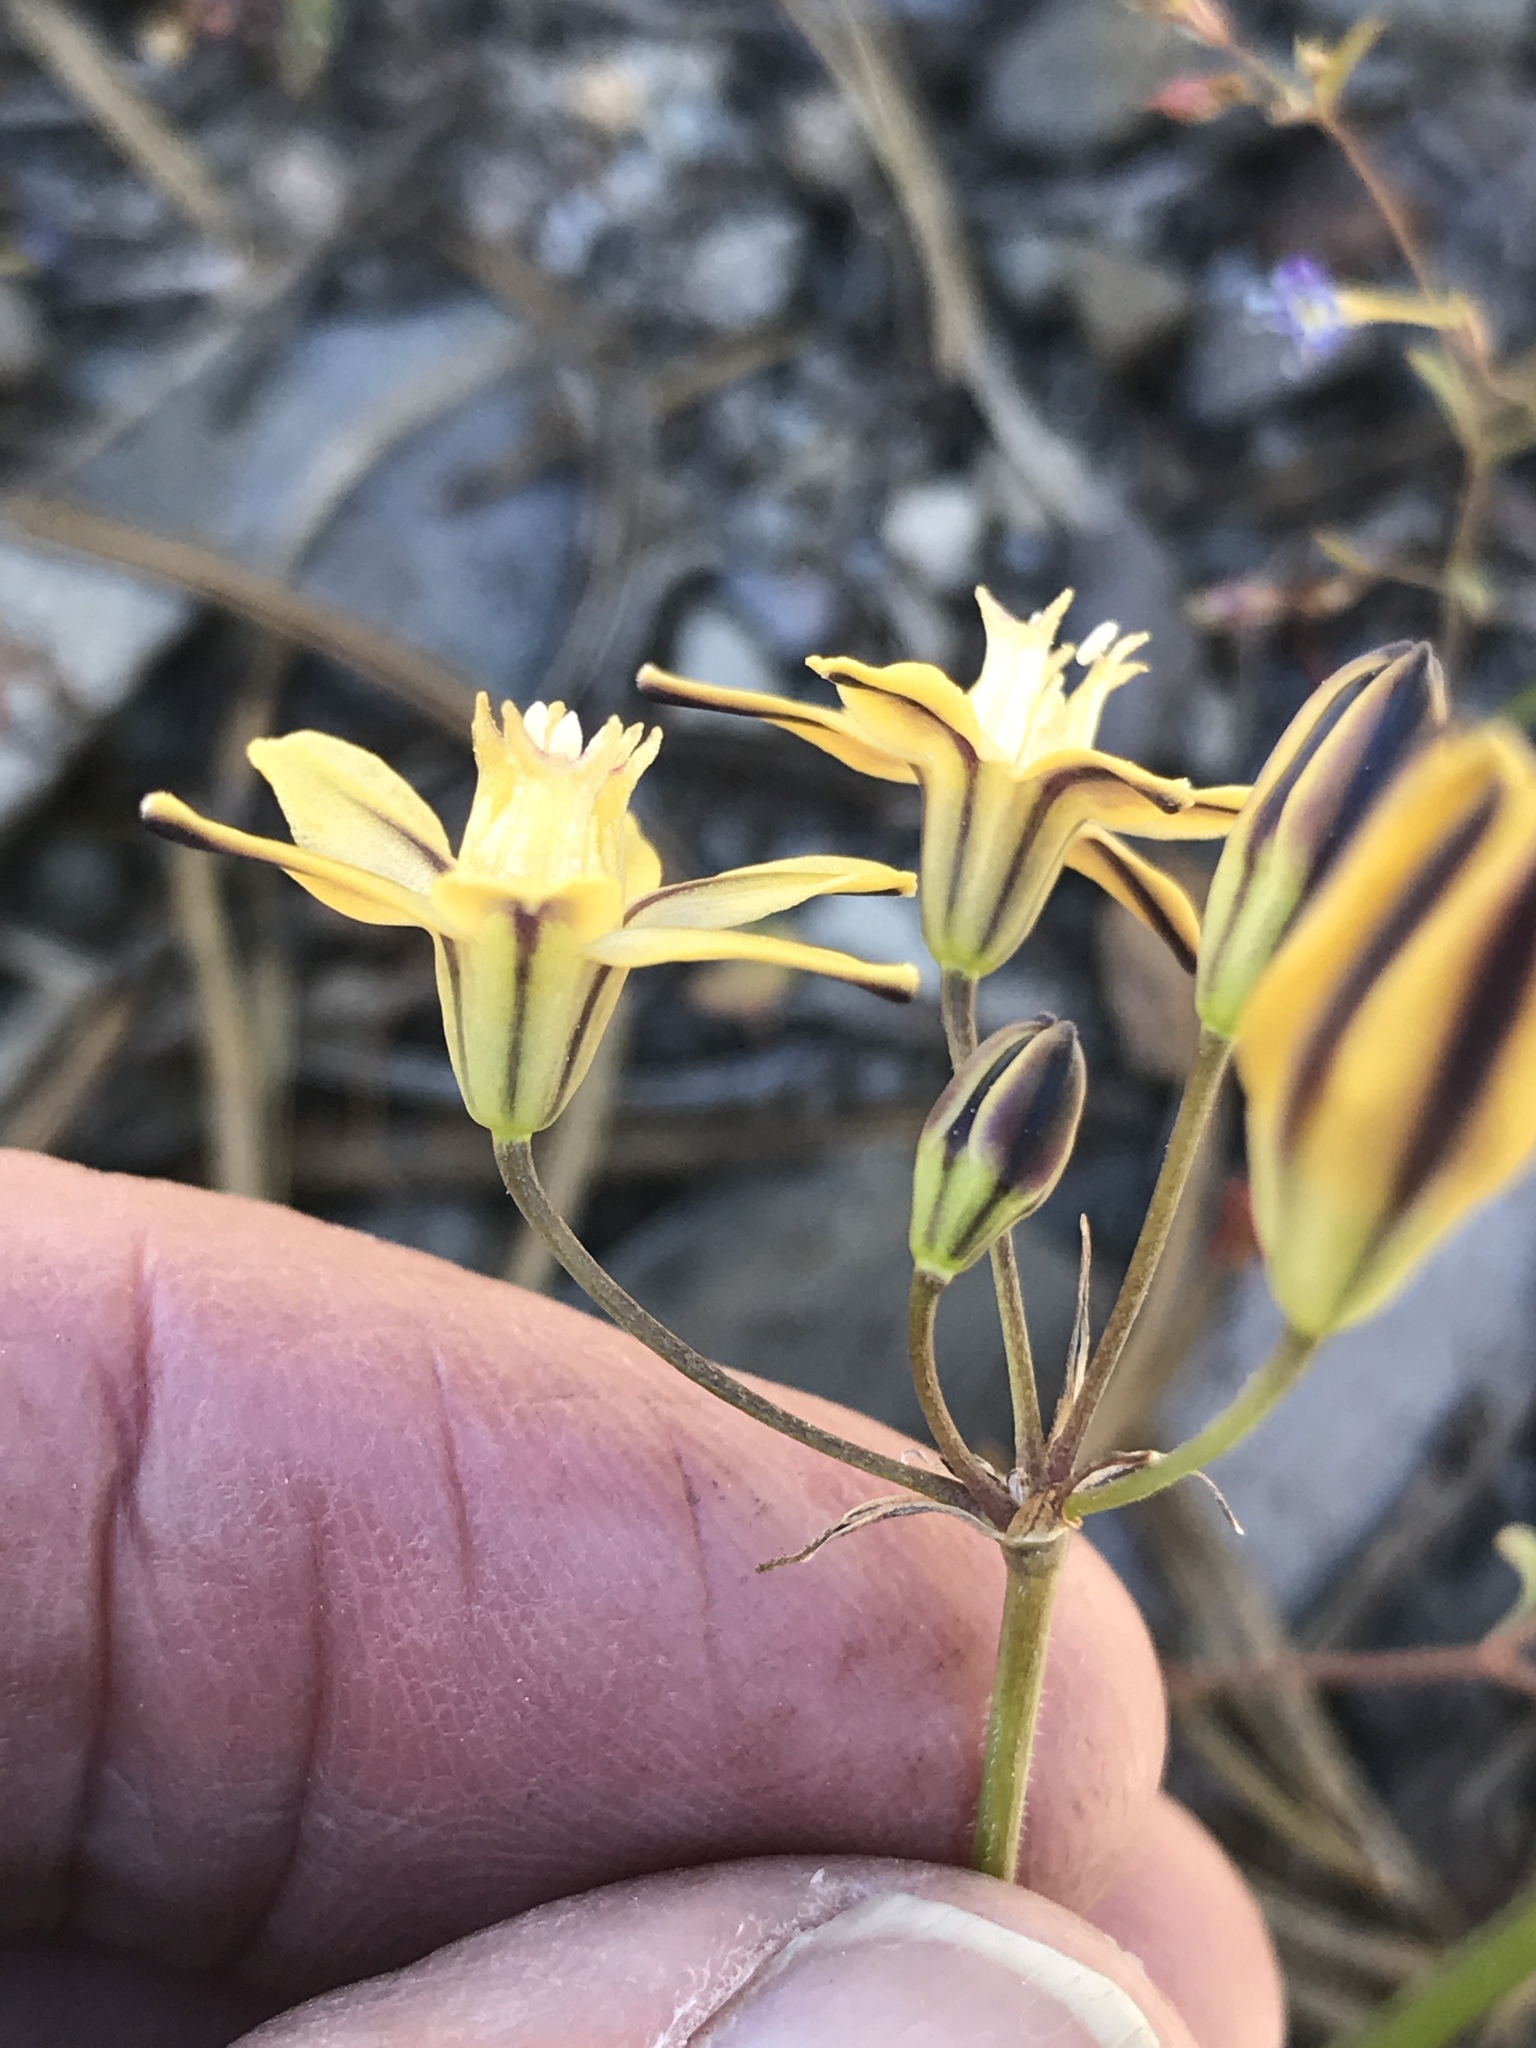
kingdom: Plantae
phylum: Tracheophyta
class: Liliopsida
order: Asparagales
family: Asparagaceae
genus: Triteleia
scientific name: Triteleia ixioides
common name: Yellow-brodiaea
